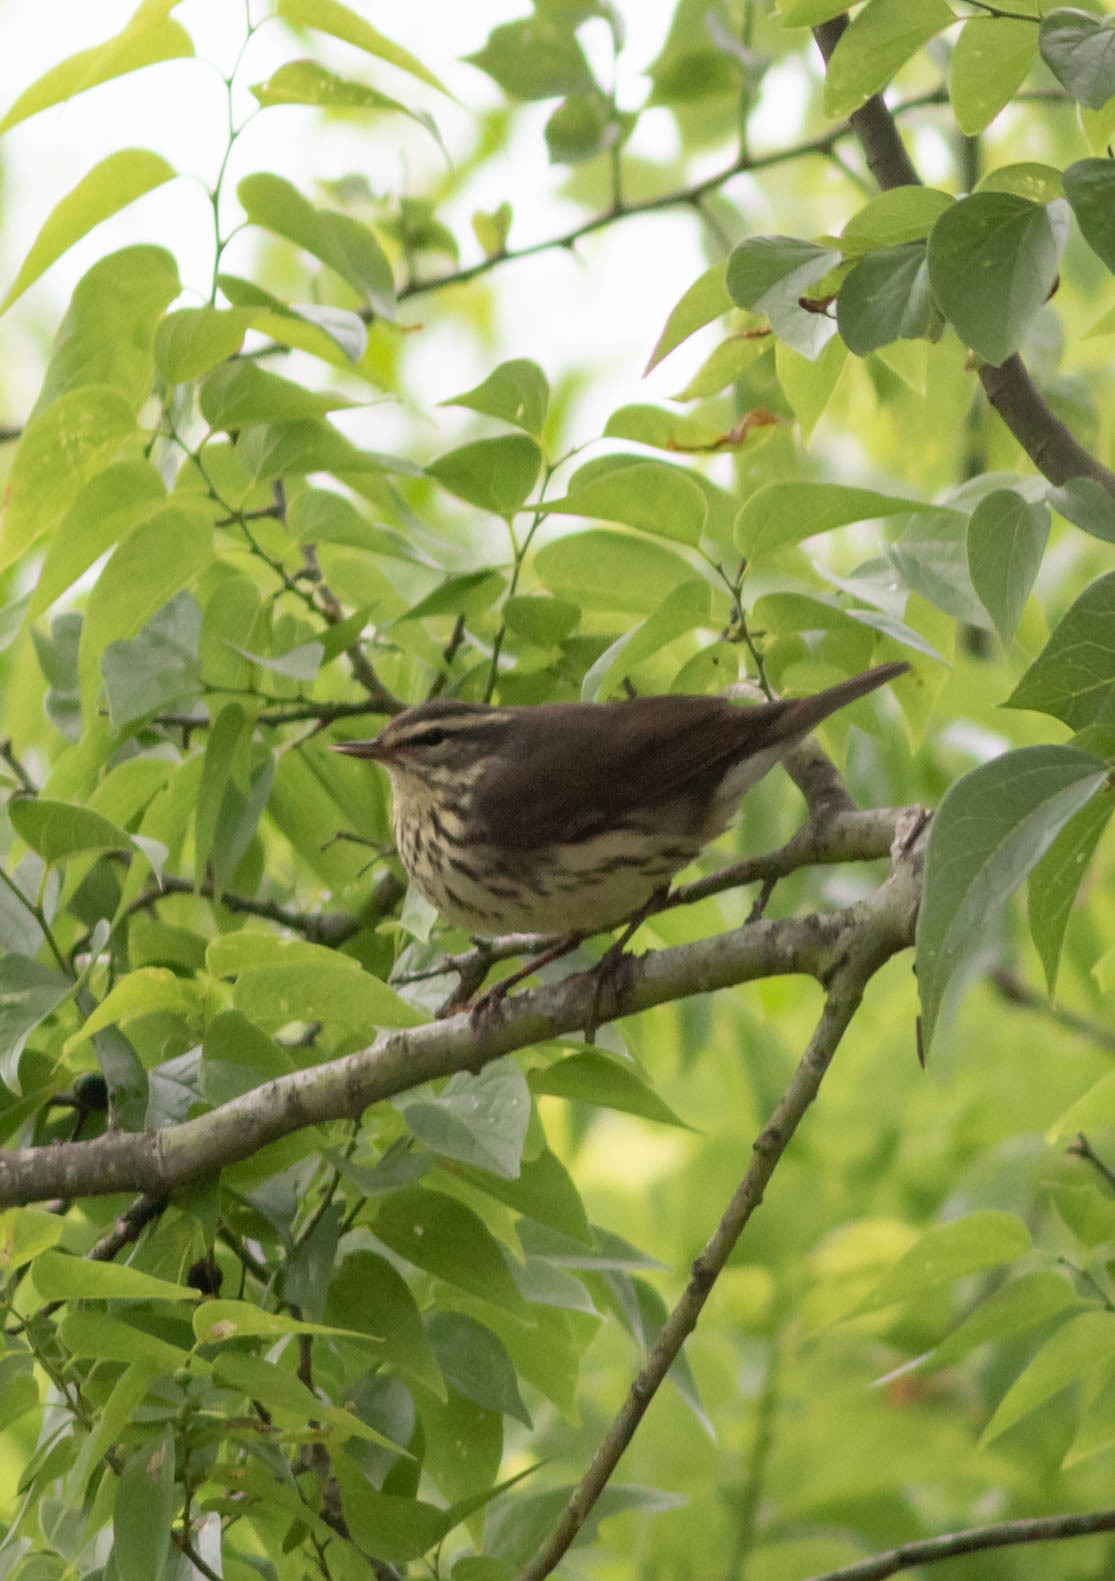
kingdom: Animalia
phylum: Chordata
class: Aves
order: Passeriformes
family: Parulidae
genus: Parkesia
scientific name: Parkesia motacilla
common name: Louisiana waterthrush
